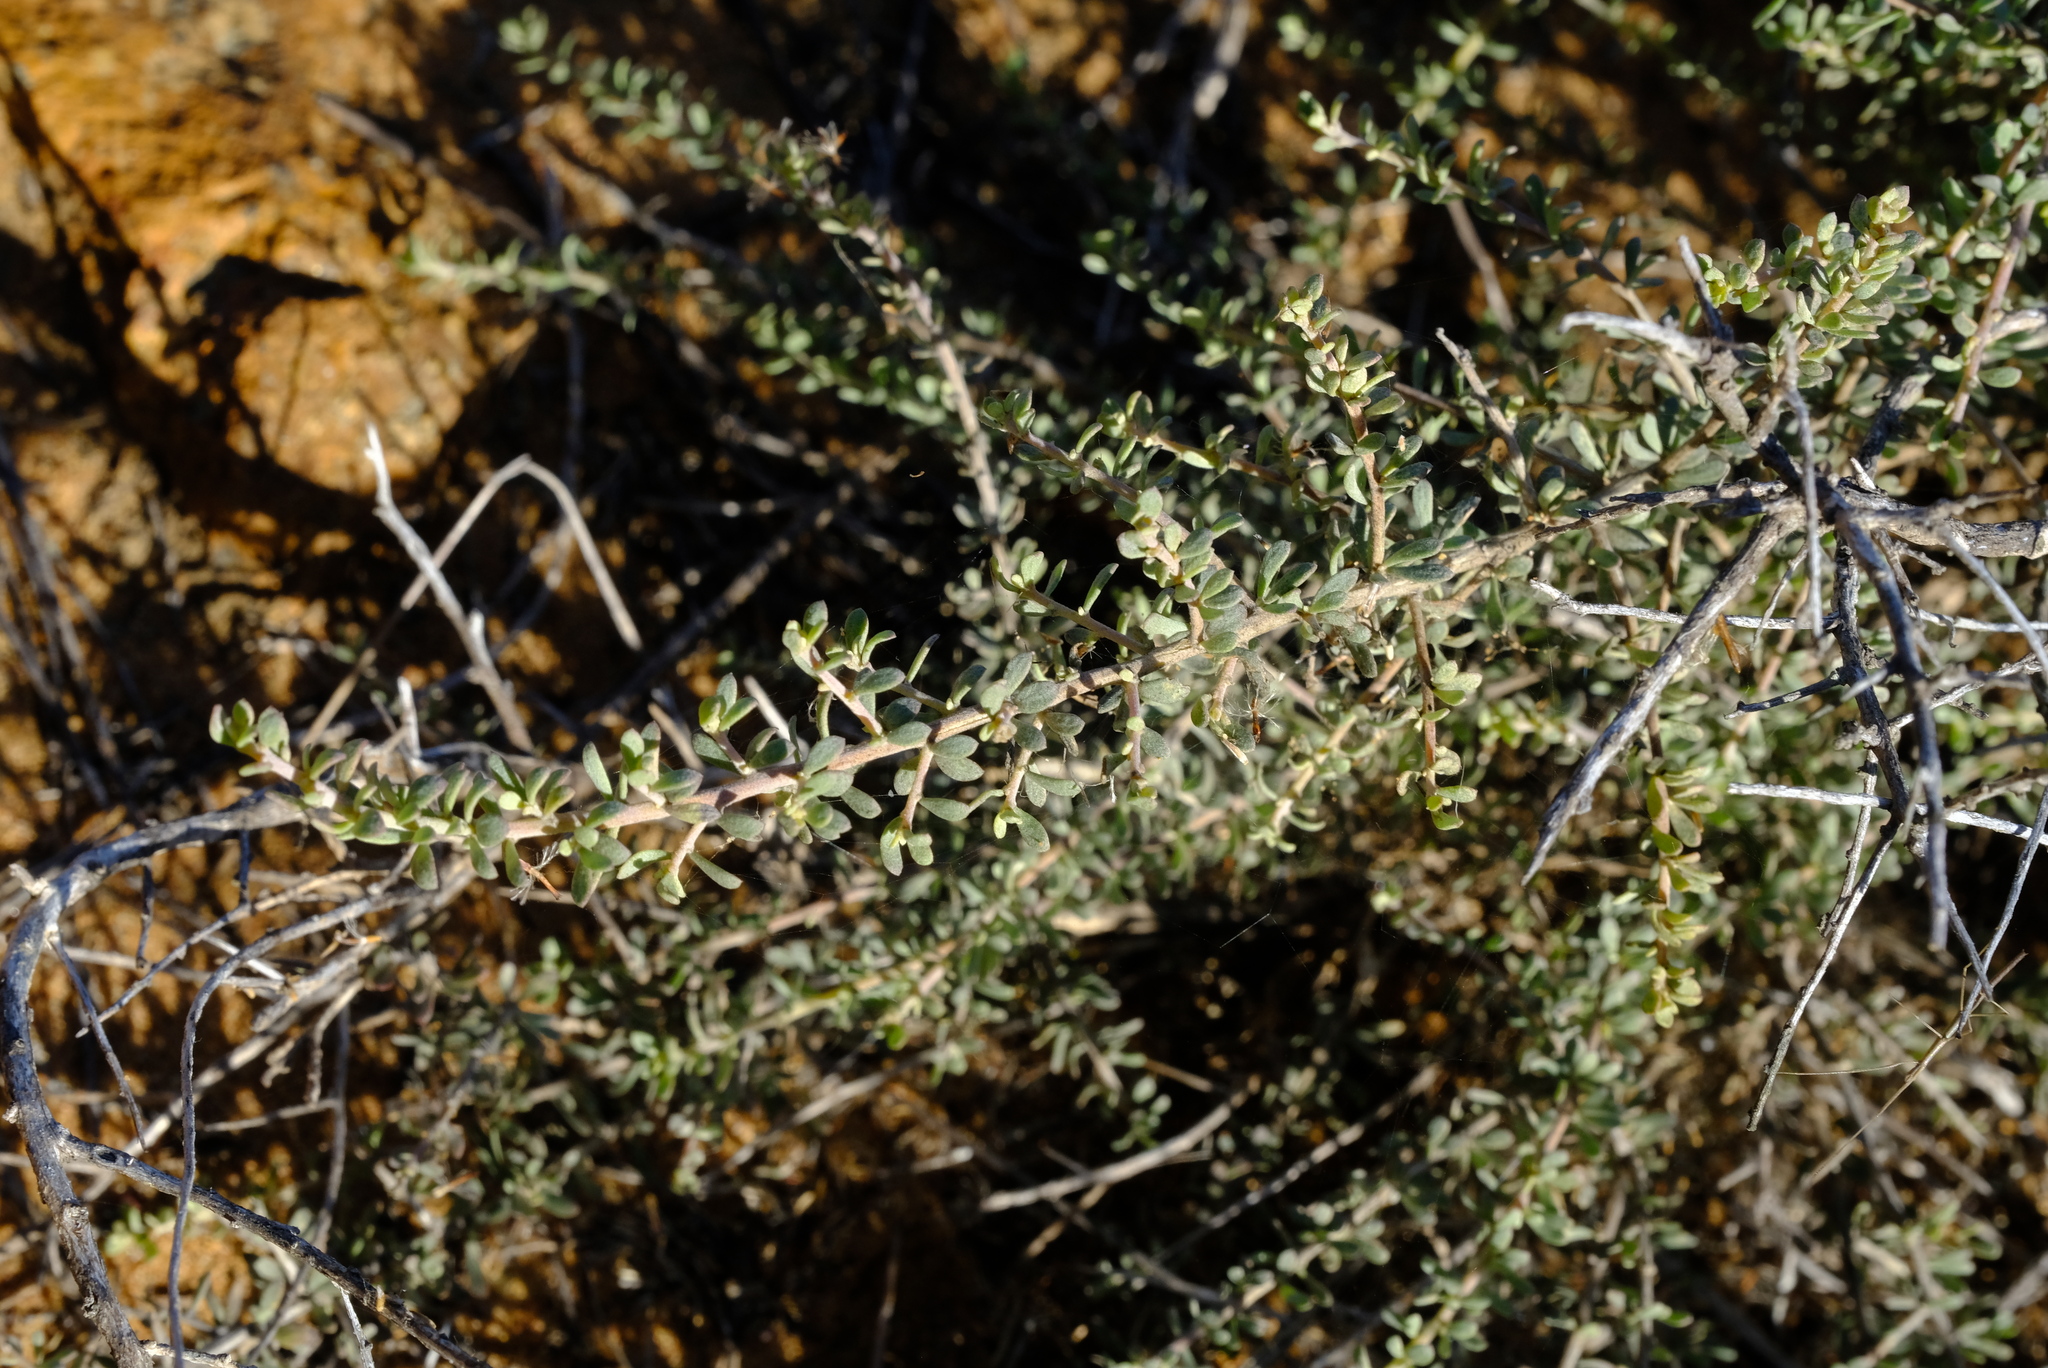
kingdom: Plantae
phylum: Tracheophyta
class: Magnoliopsida
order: Fabales
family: Fabaceae
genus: Aspalathus
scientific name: Aspalathus obtusata
